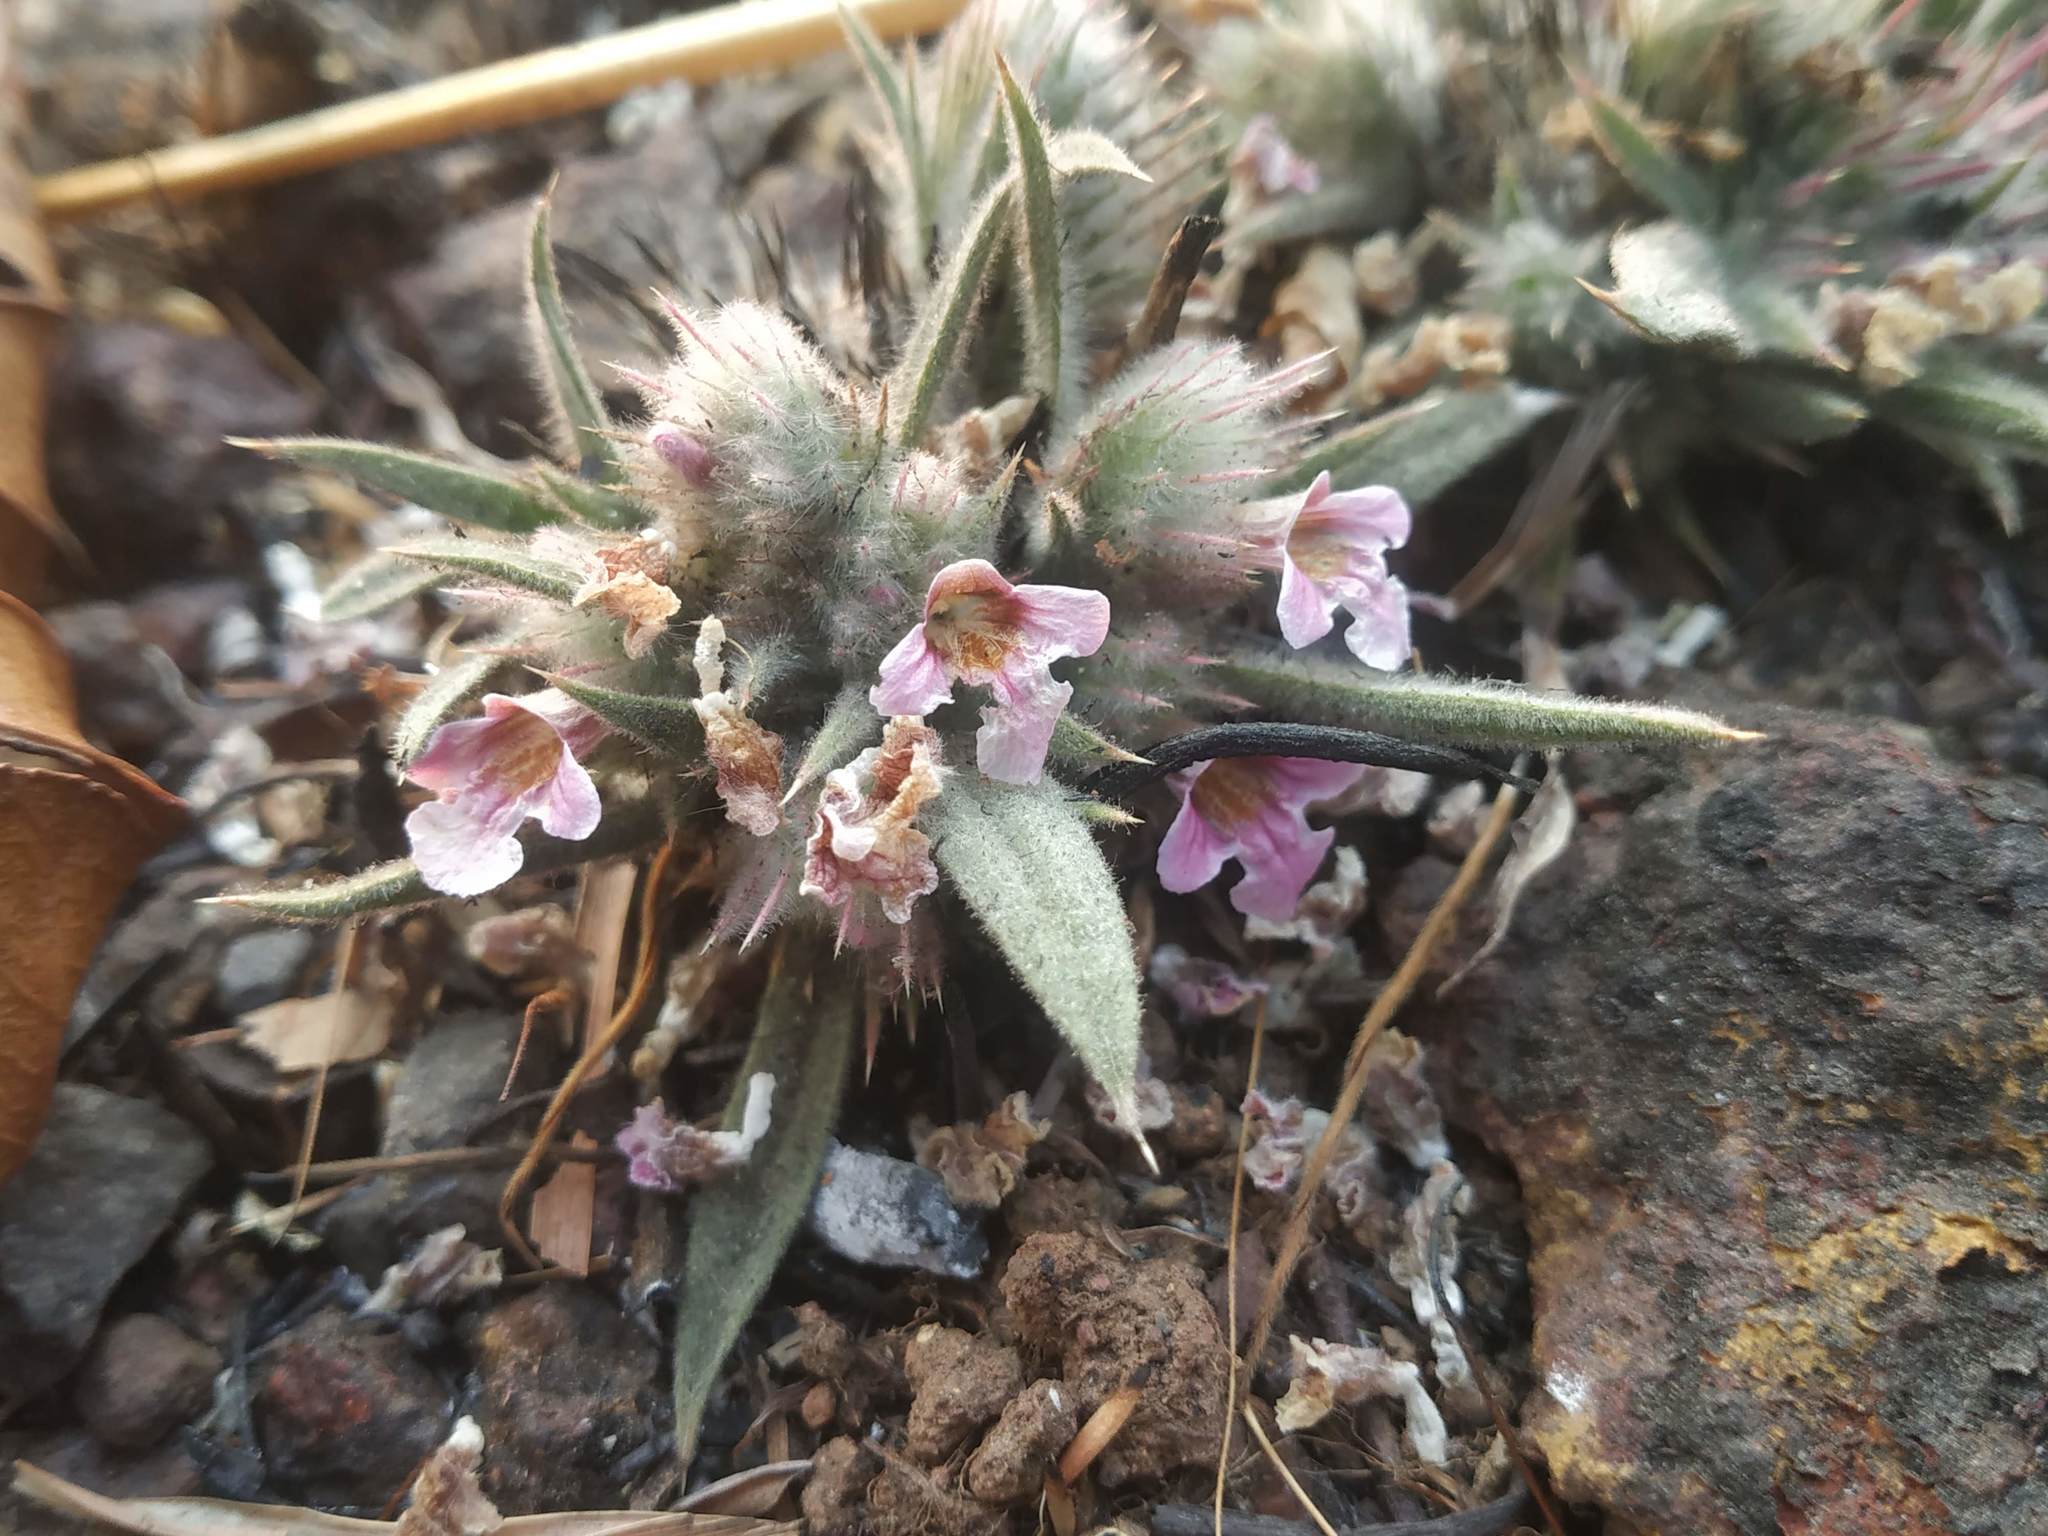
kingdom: Plantae
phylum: Tracheophyta
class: Magnoliopsida
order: Lamiales
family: Acanthaceae
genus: Lepidagathis
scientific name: Lepidagathis lutea
